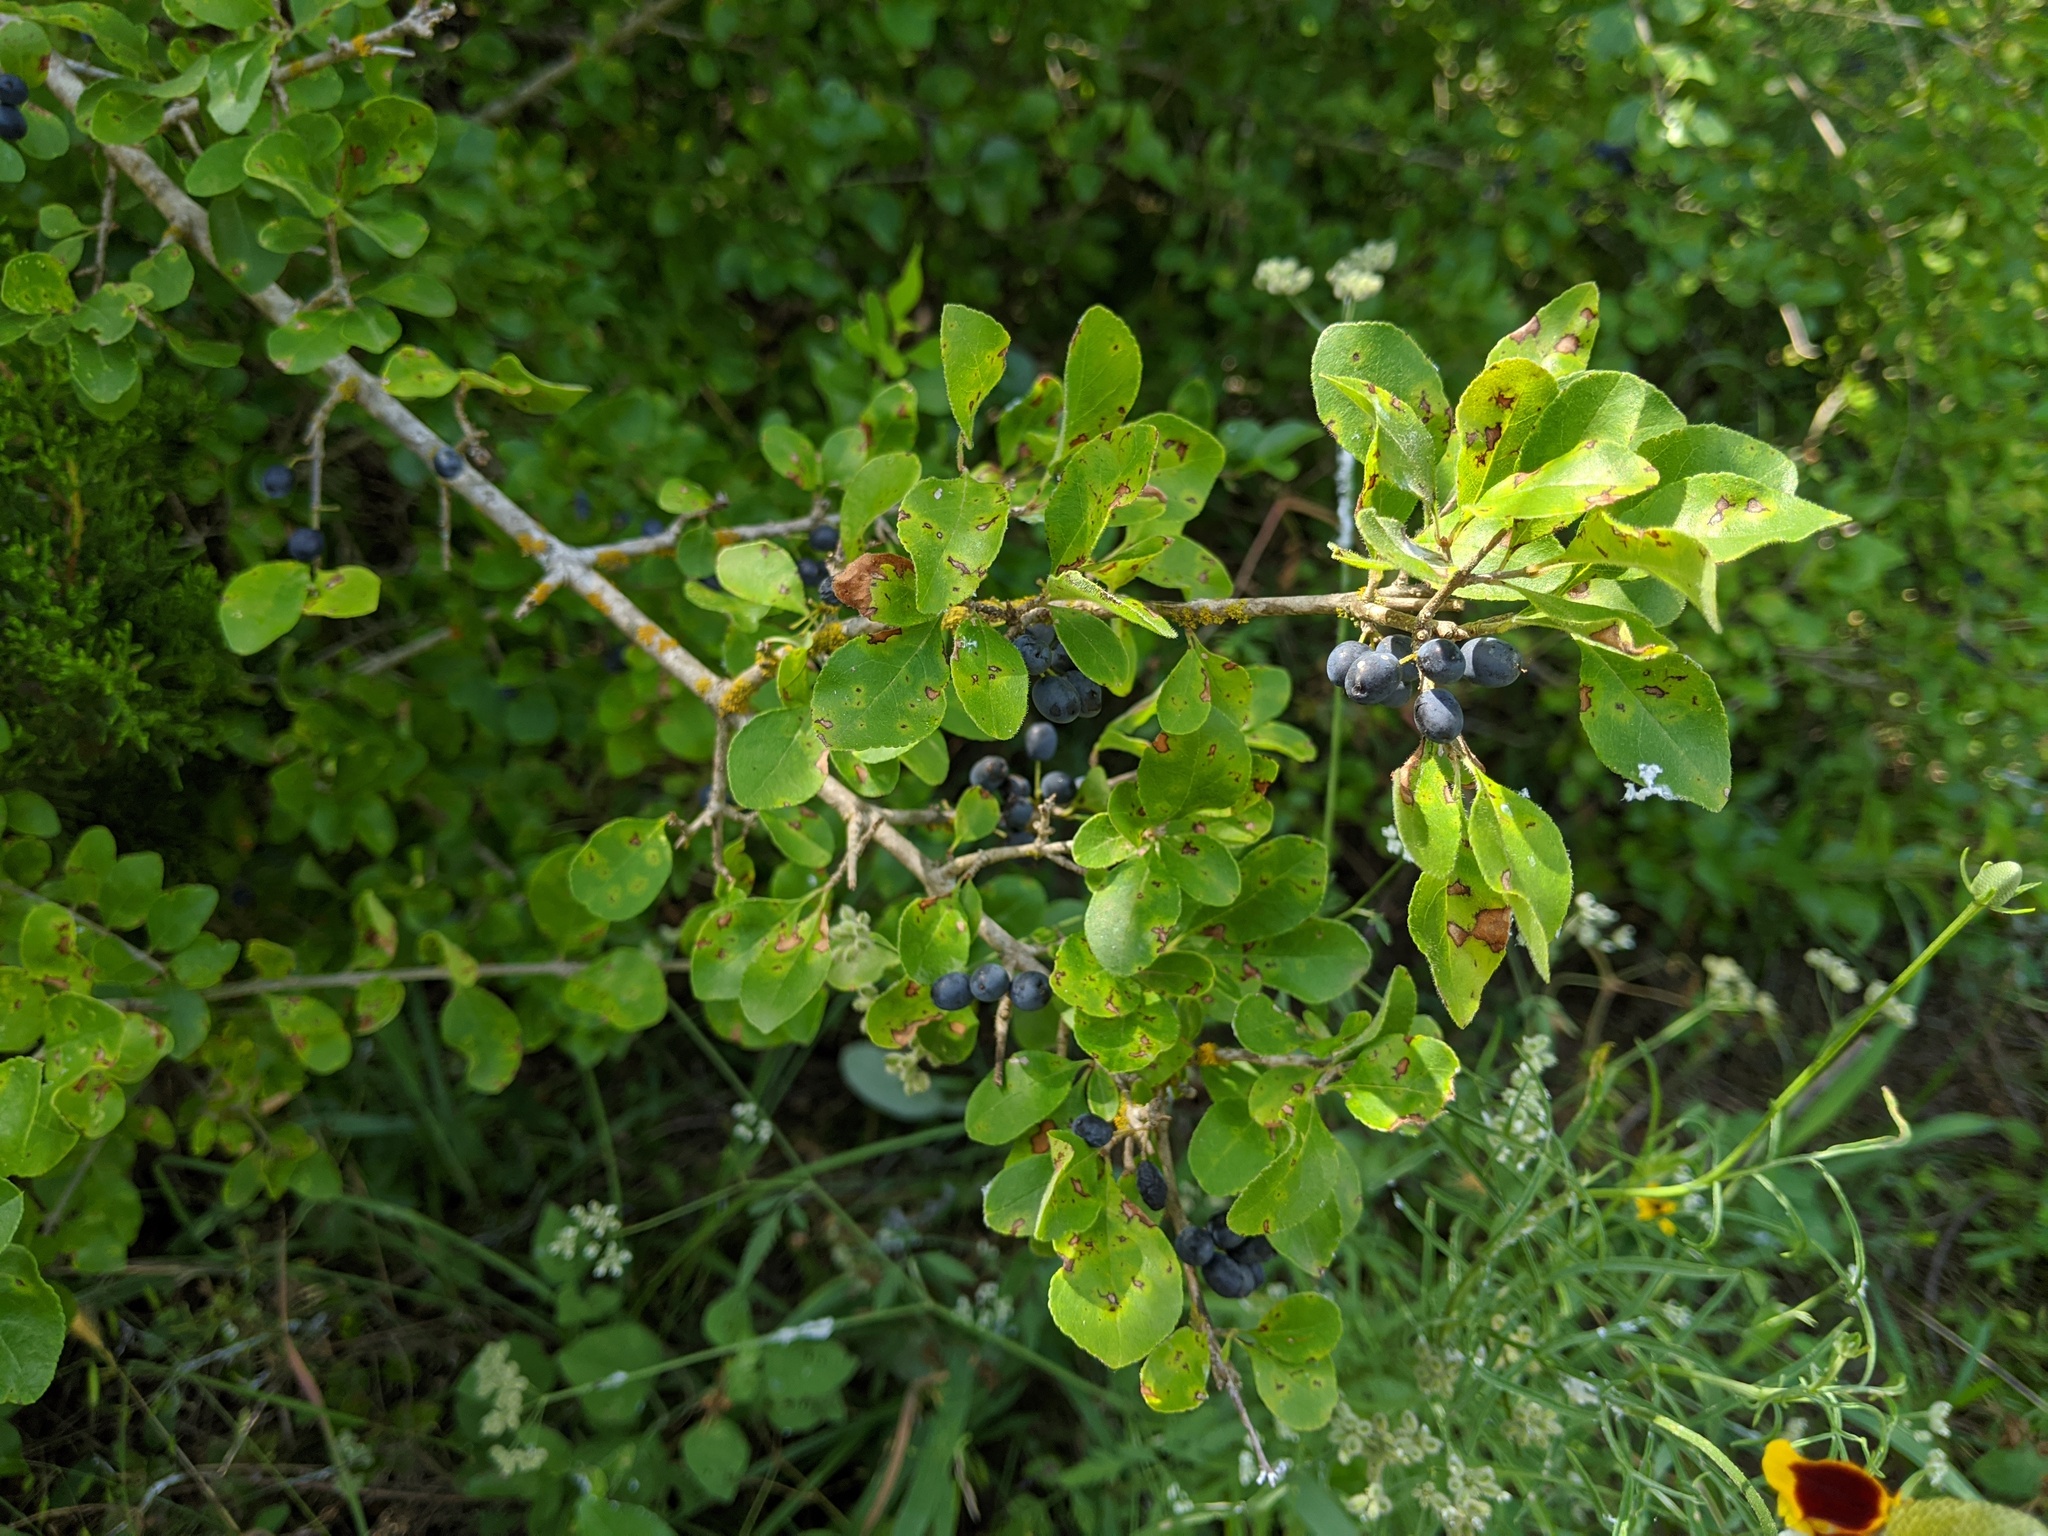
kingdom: Plantae
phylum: Tracheophyta
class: Magnoliopsida
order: Lamiales
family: Oleaceae
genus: Forestiera
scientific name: Forestiera pubescens
